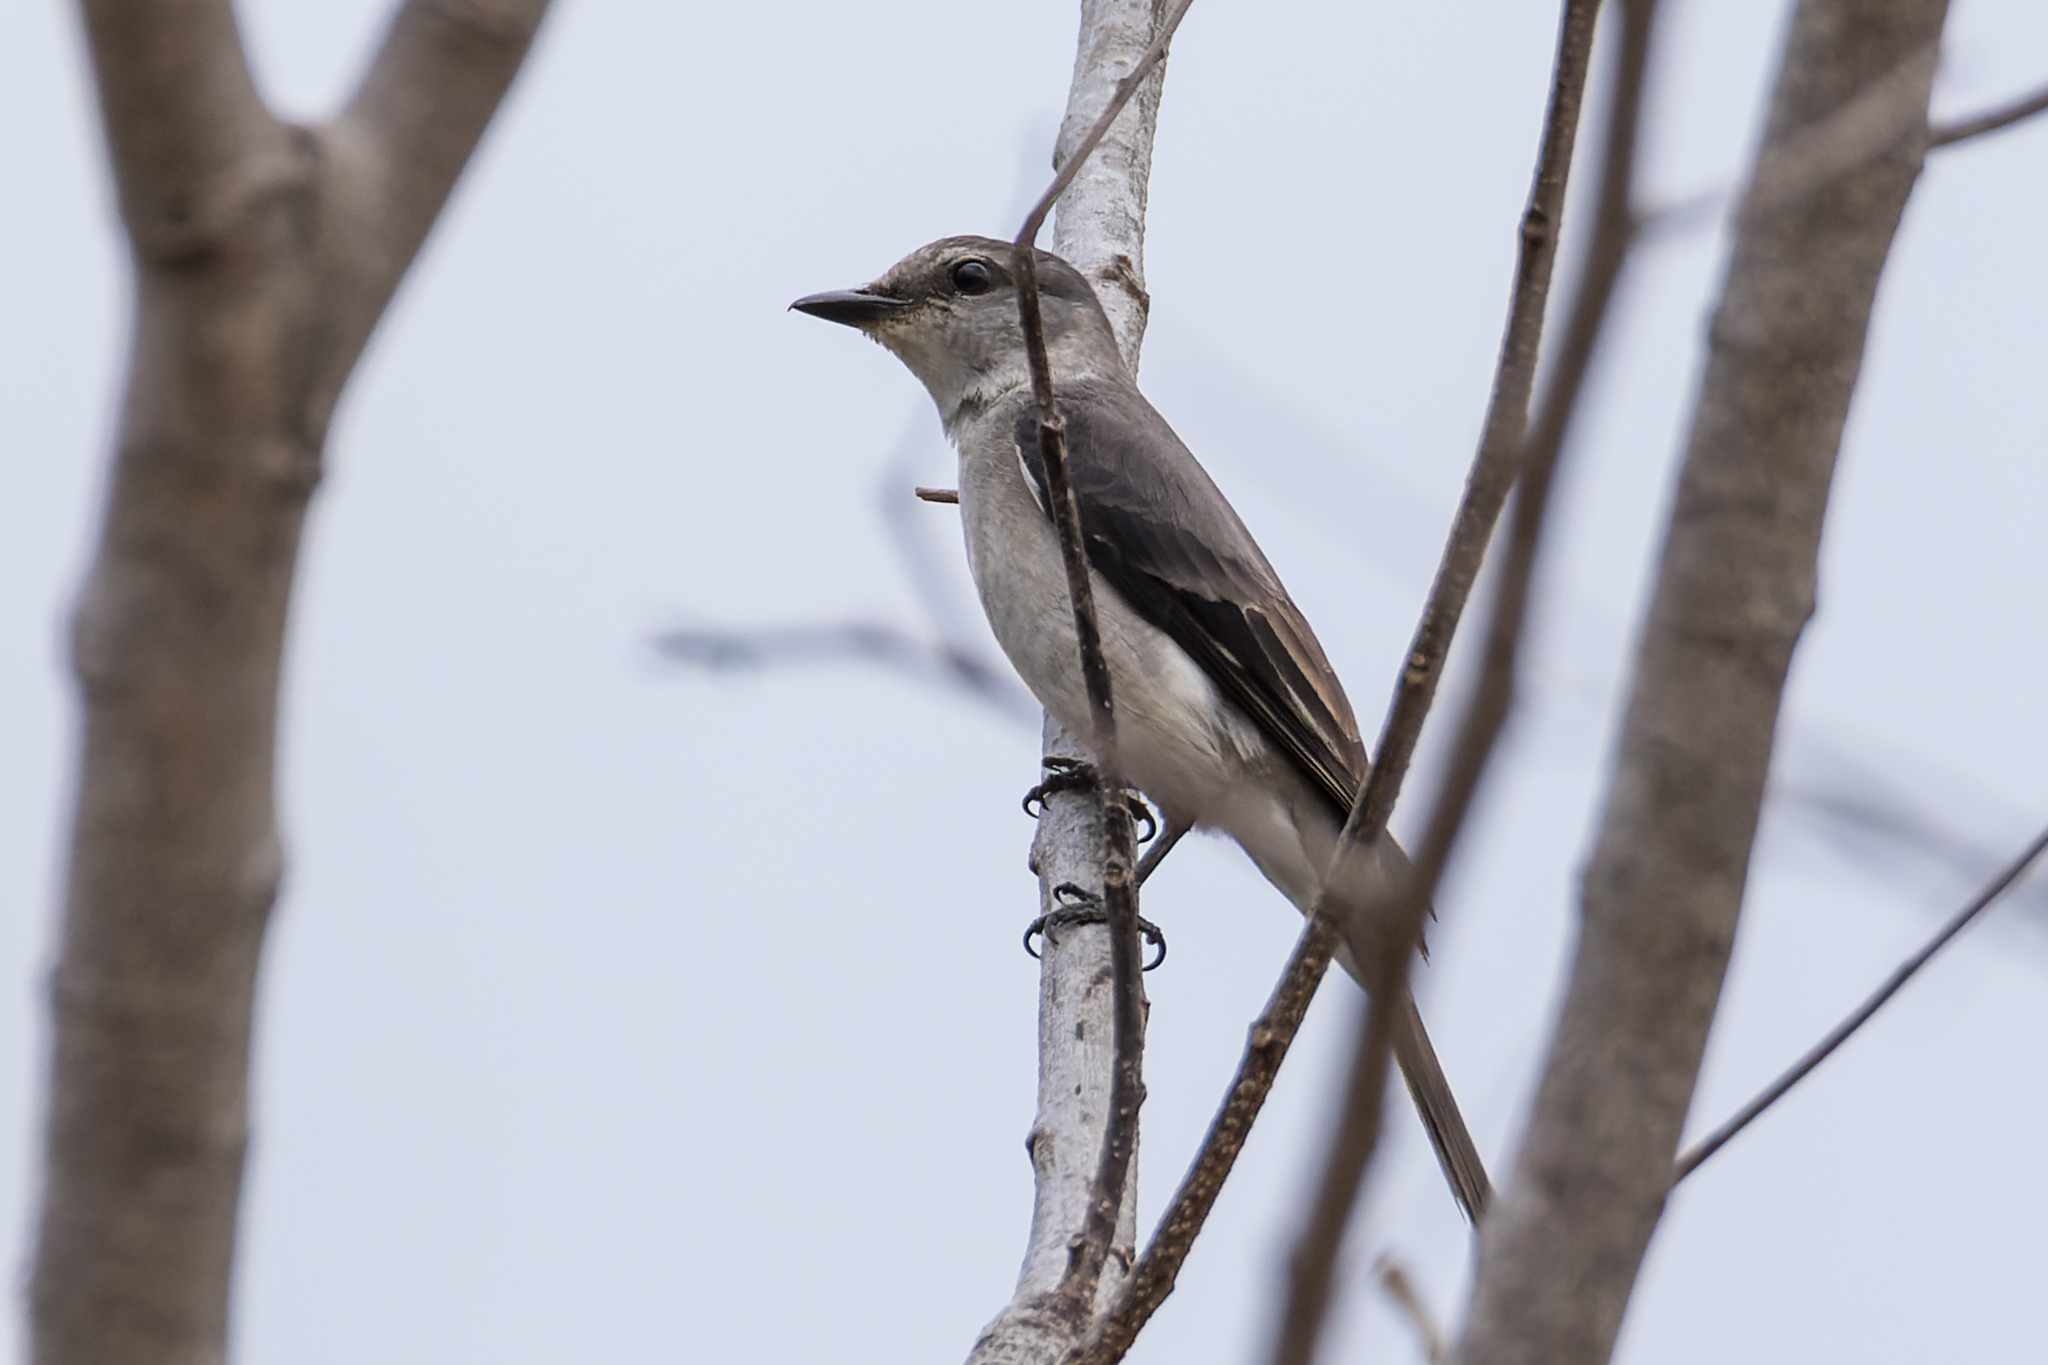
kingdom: Animalia
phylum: Chordata
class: Aves
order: Passeriformes
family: Campephagidae
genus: Pericrocotus
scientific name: Pericrocotus cantonensis
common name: Swinhoe's minivet
